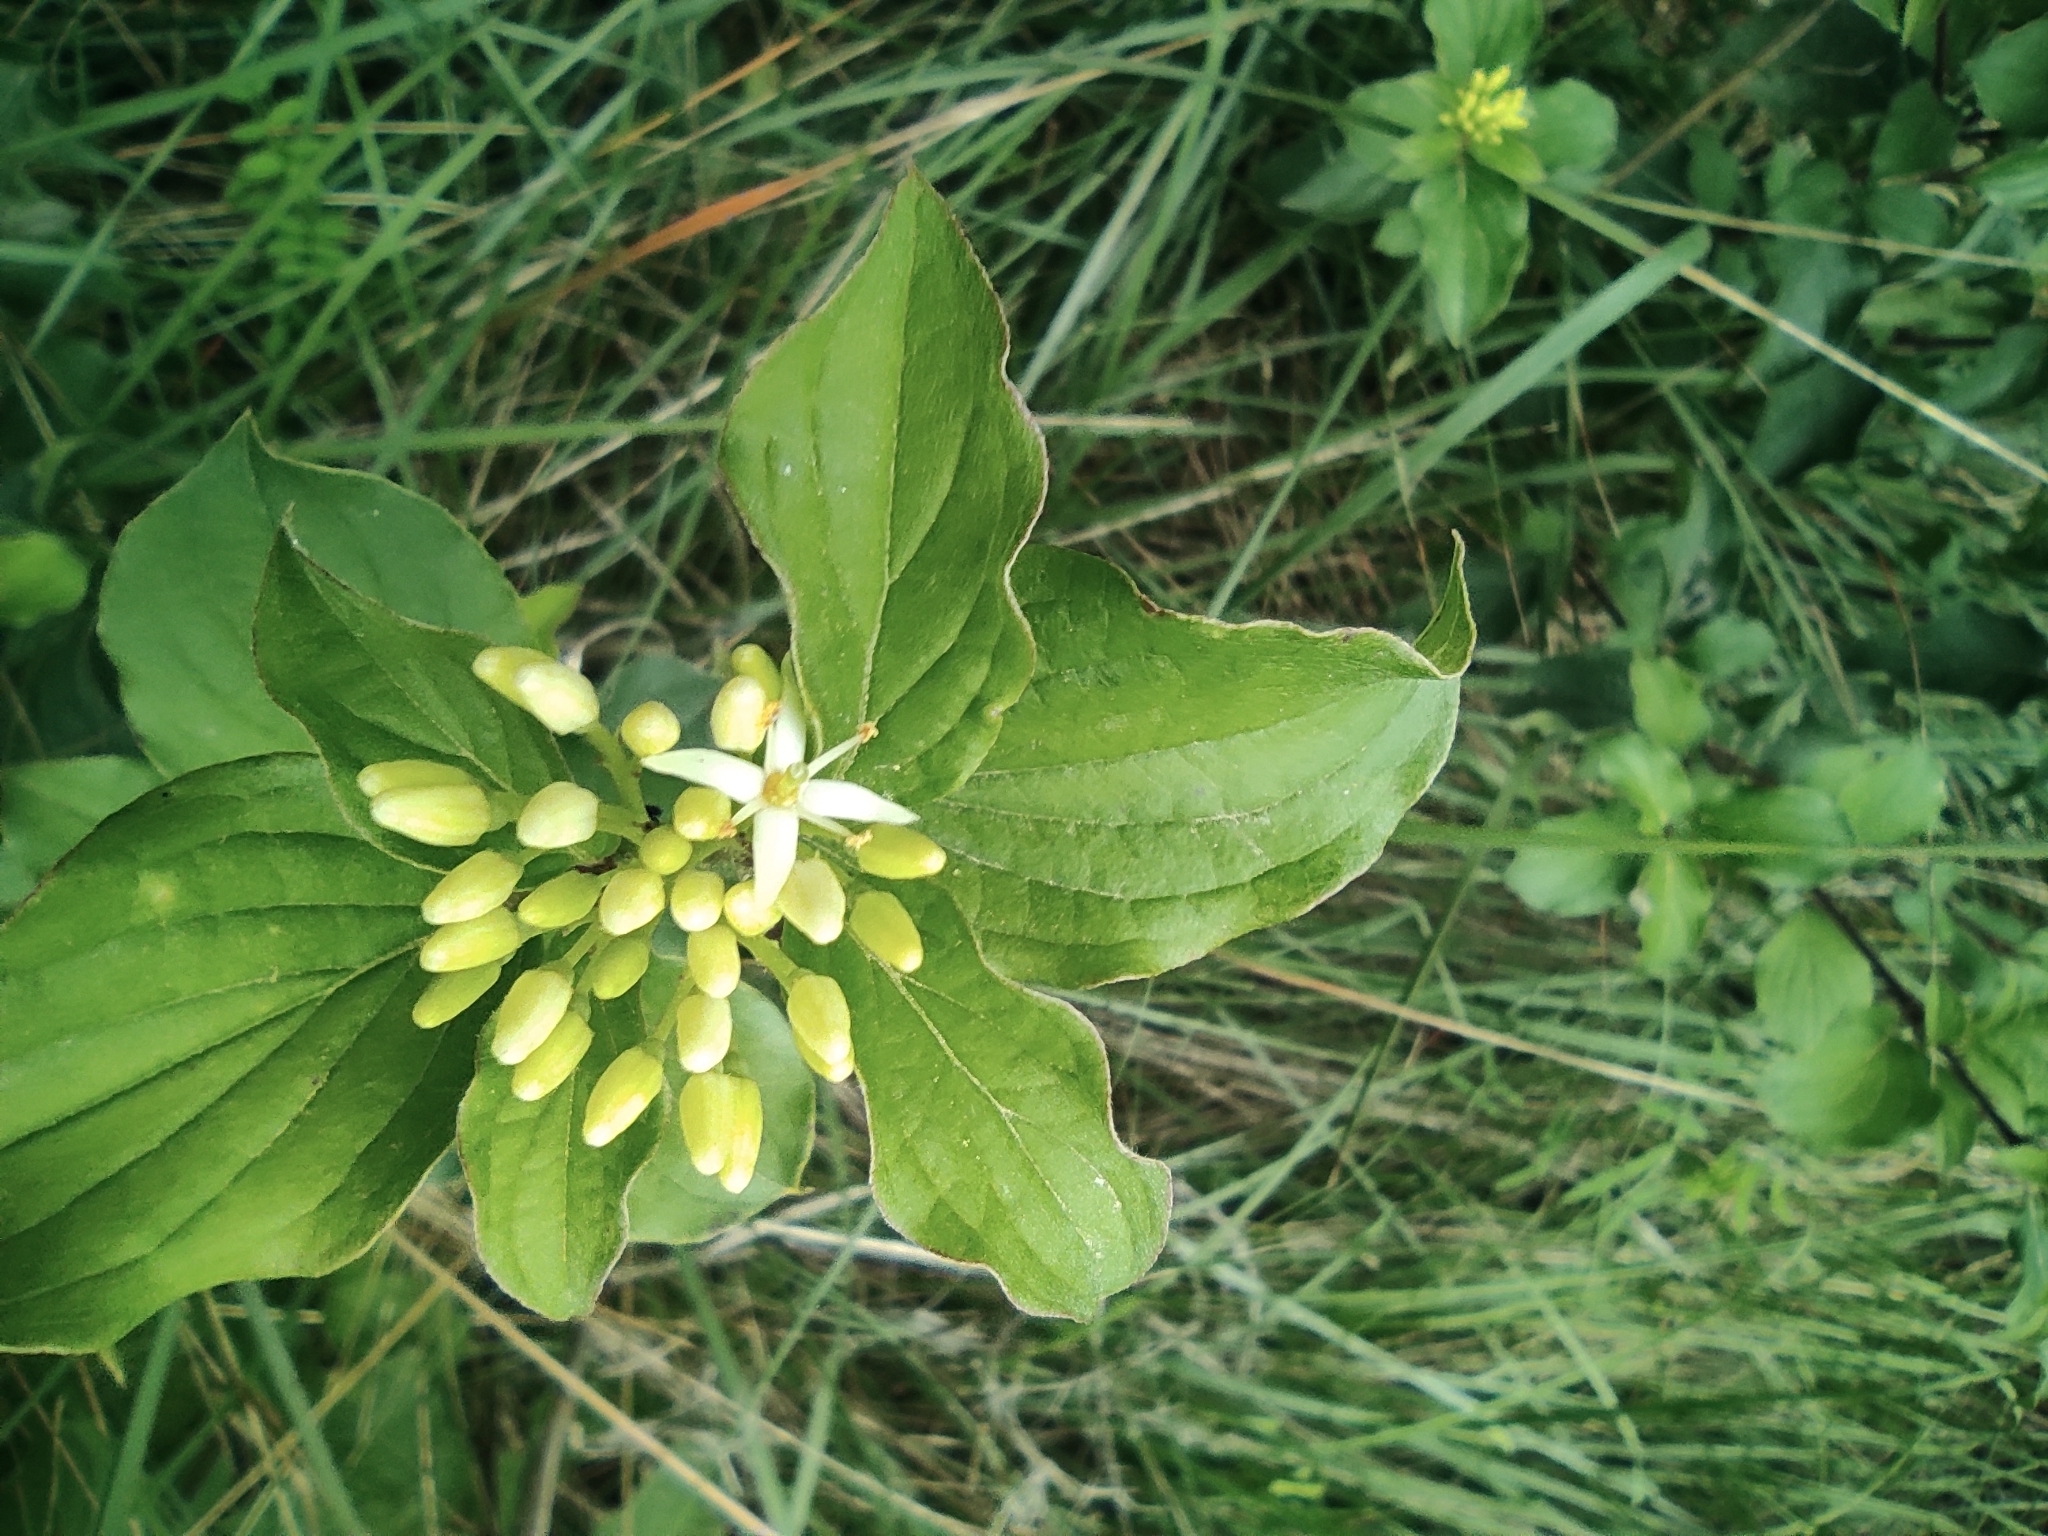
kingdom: Plantae
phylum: Tracheophyta
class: Magnoliopsida
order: Cornales
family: Cornaceae
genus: Cornus
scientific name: Cornus sanguinea
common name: Dogwood
